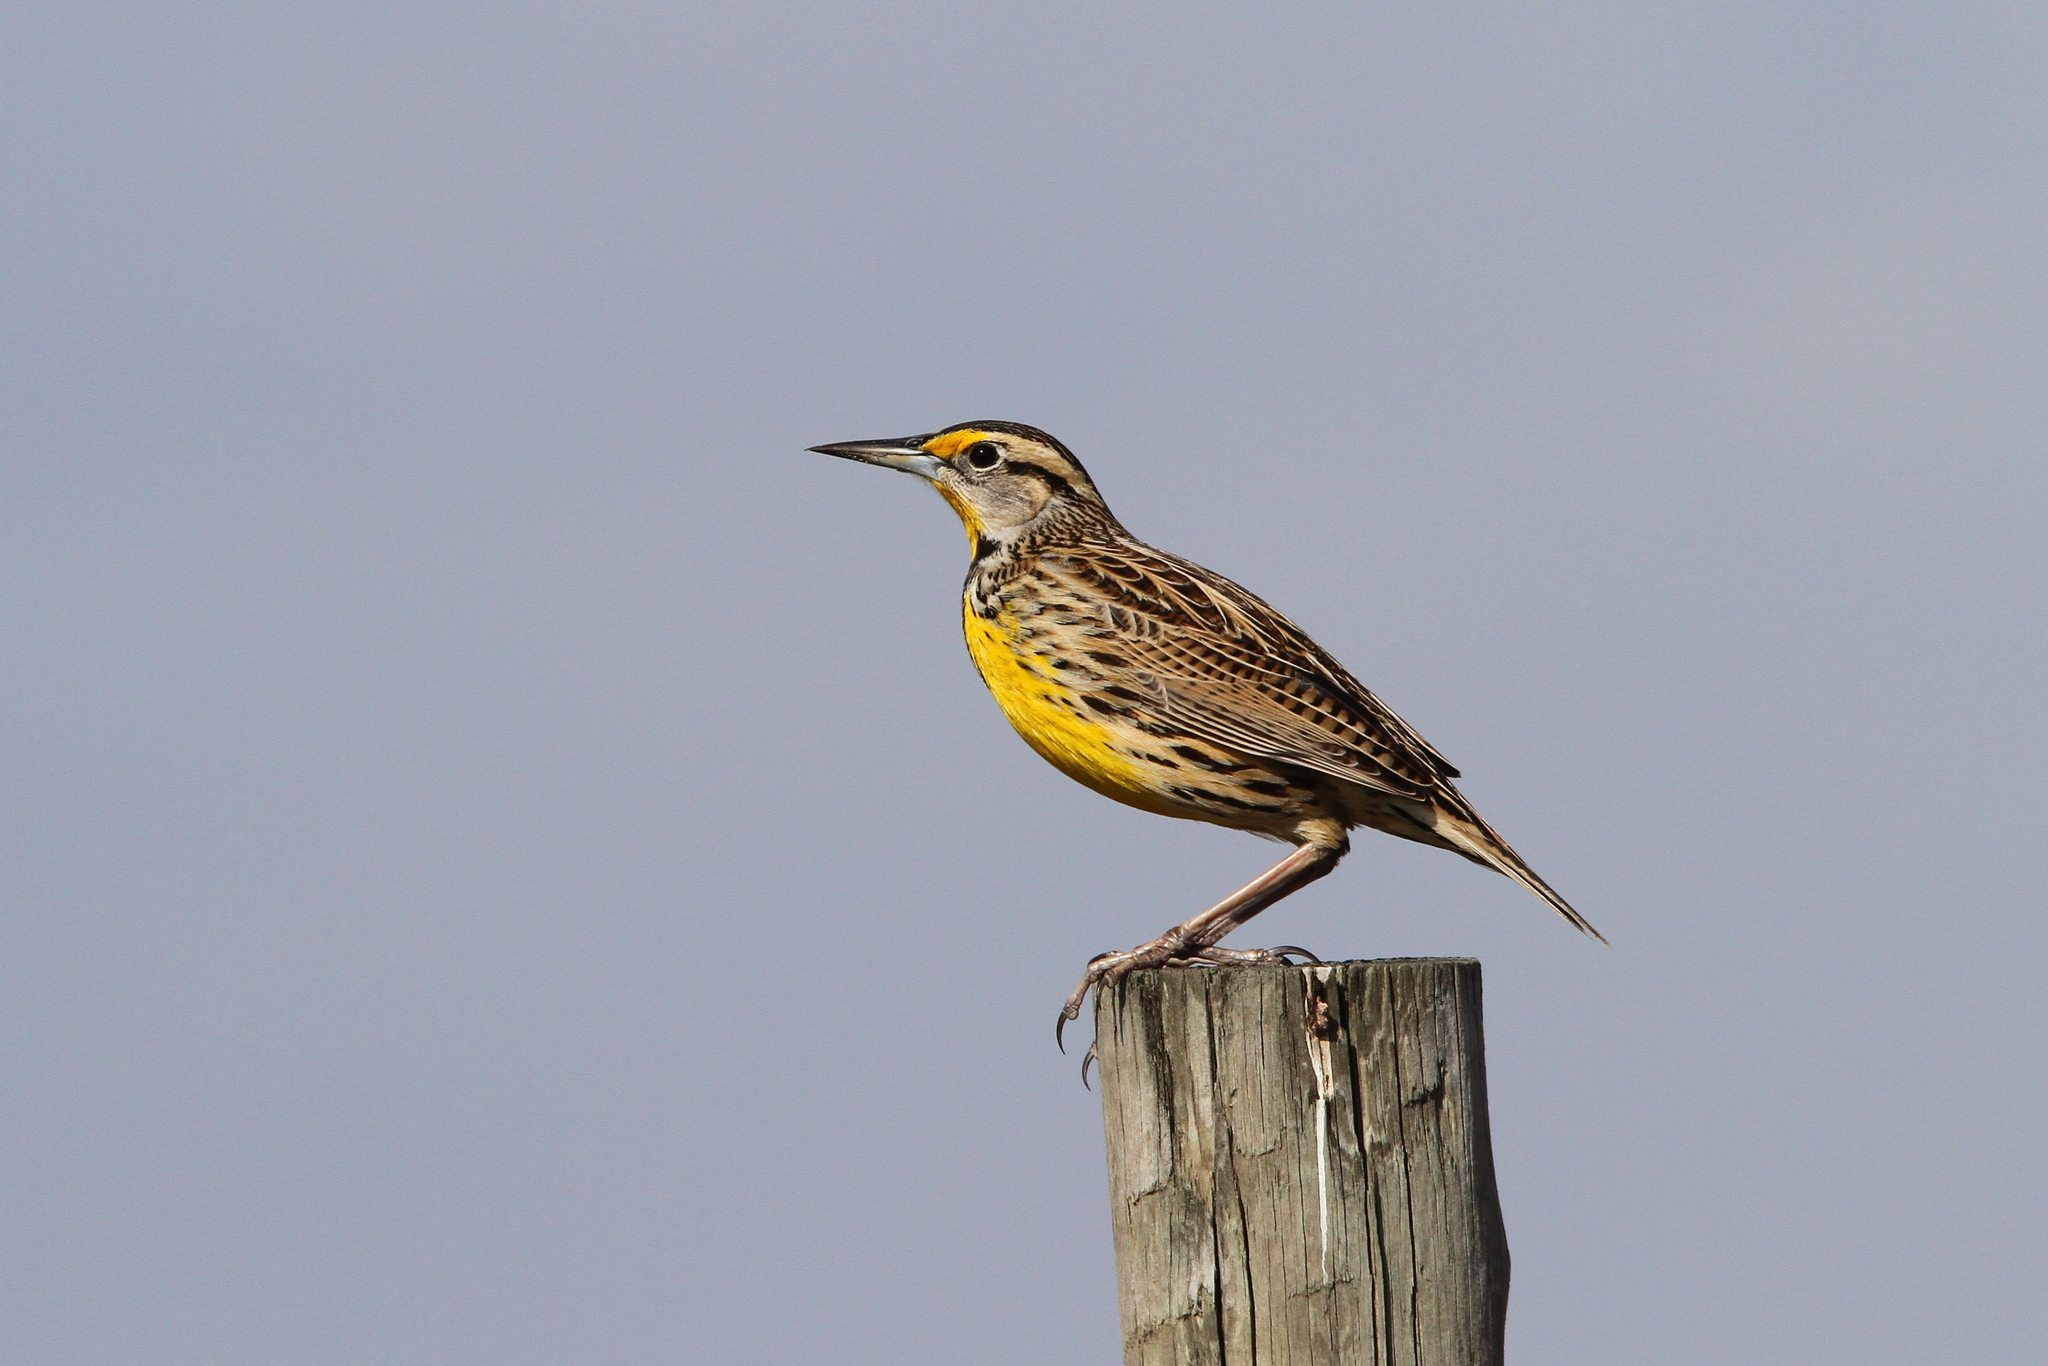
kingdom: Animalia
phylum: Chordata
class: Aves
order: Passeriformes
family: Icteridae
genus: Sturnella
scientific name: Sturnella magna
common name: Eastern meadowlark
